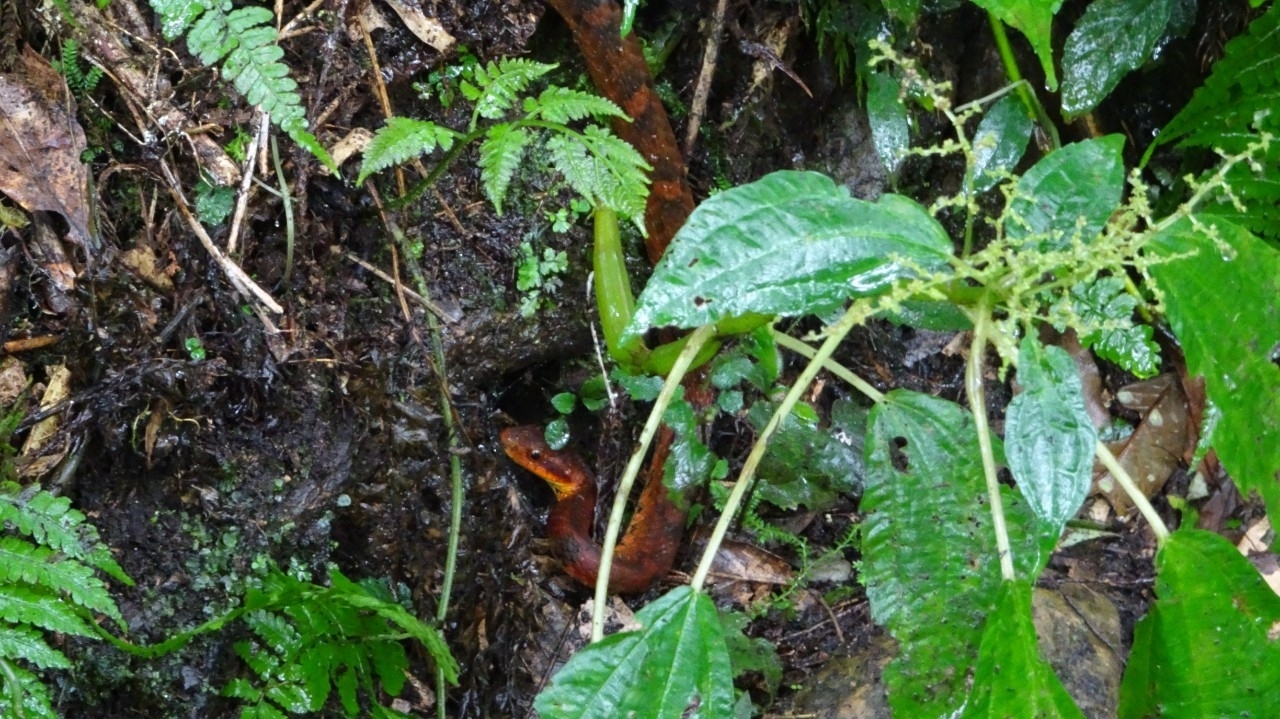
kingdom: Animalia
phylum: Chordata
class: Squamata
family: Colubridae
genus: Pseudoxenodon
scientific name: Pseudoxenodon stejnegeri
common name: Stejneger's bamboo snake
